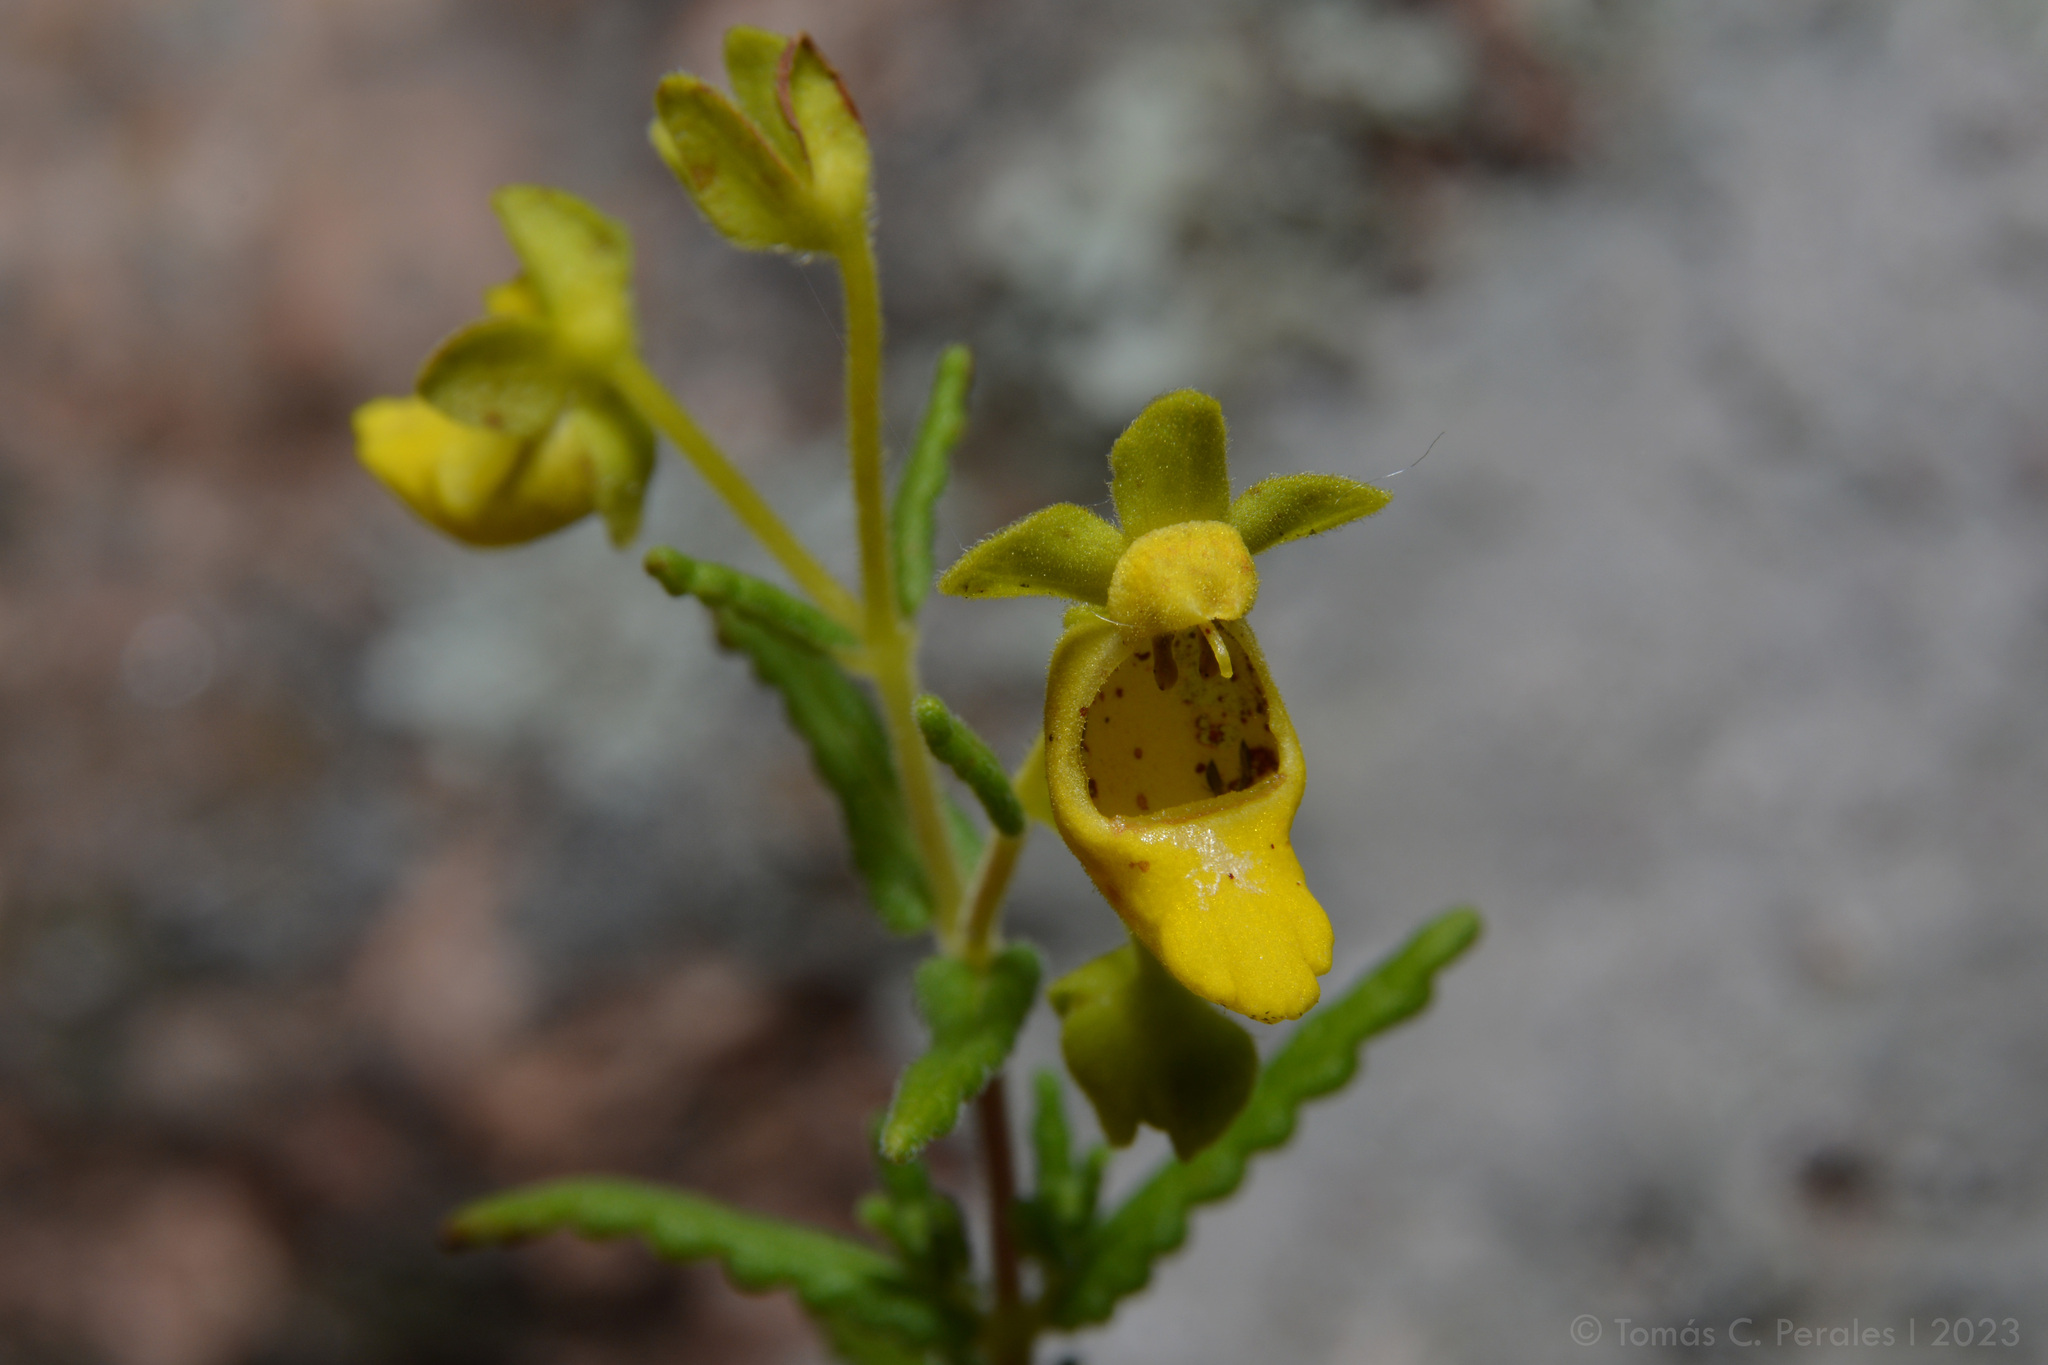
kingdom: Plantae
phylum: Tracheophyta
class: Magnoliopsida
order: Lamiales
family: Calceolariaceae
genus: Calceolaria
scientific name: Calceolaria teucrioides
